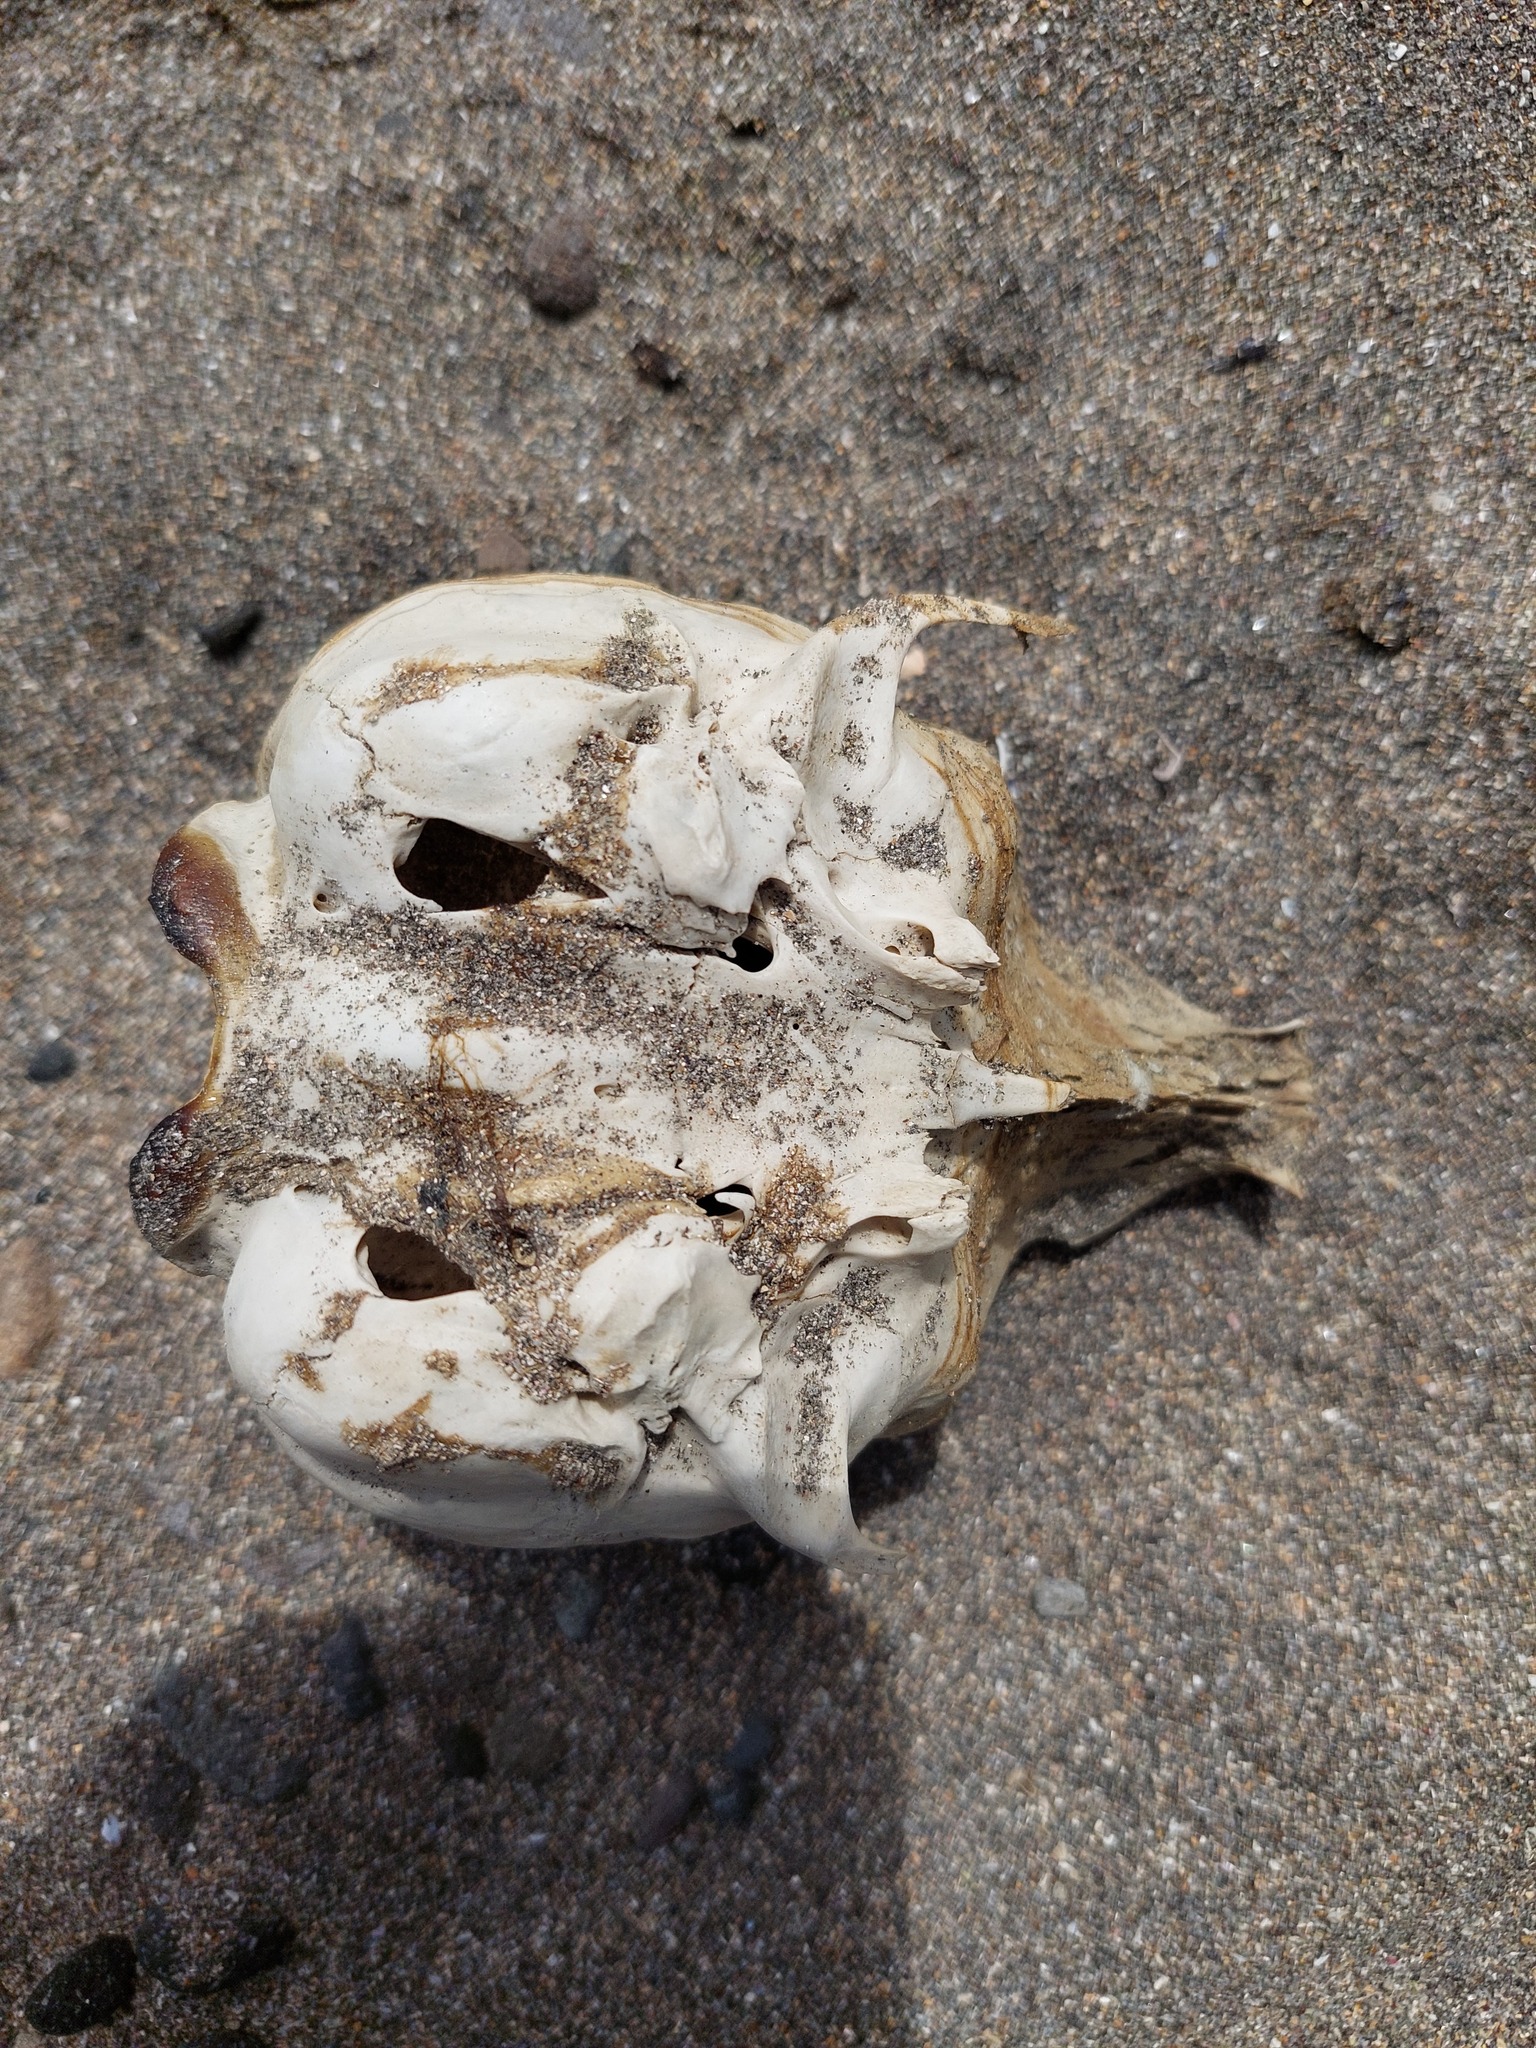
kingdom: Animalia
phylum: Chordata
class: Mammalia
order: Carnivora
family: Otariidae
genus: Arctocephalus
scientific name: Arctocephalus forsteri
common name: New zealand fur seal
